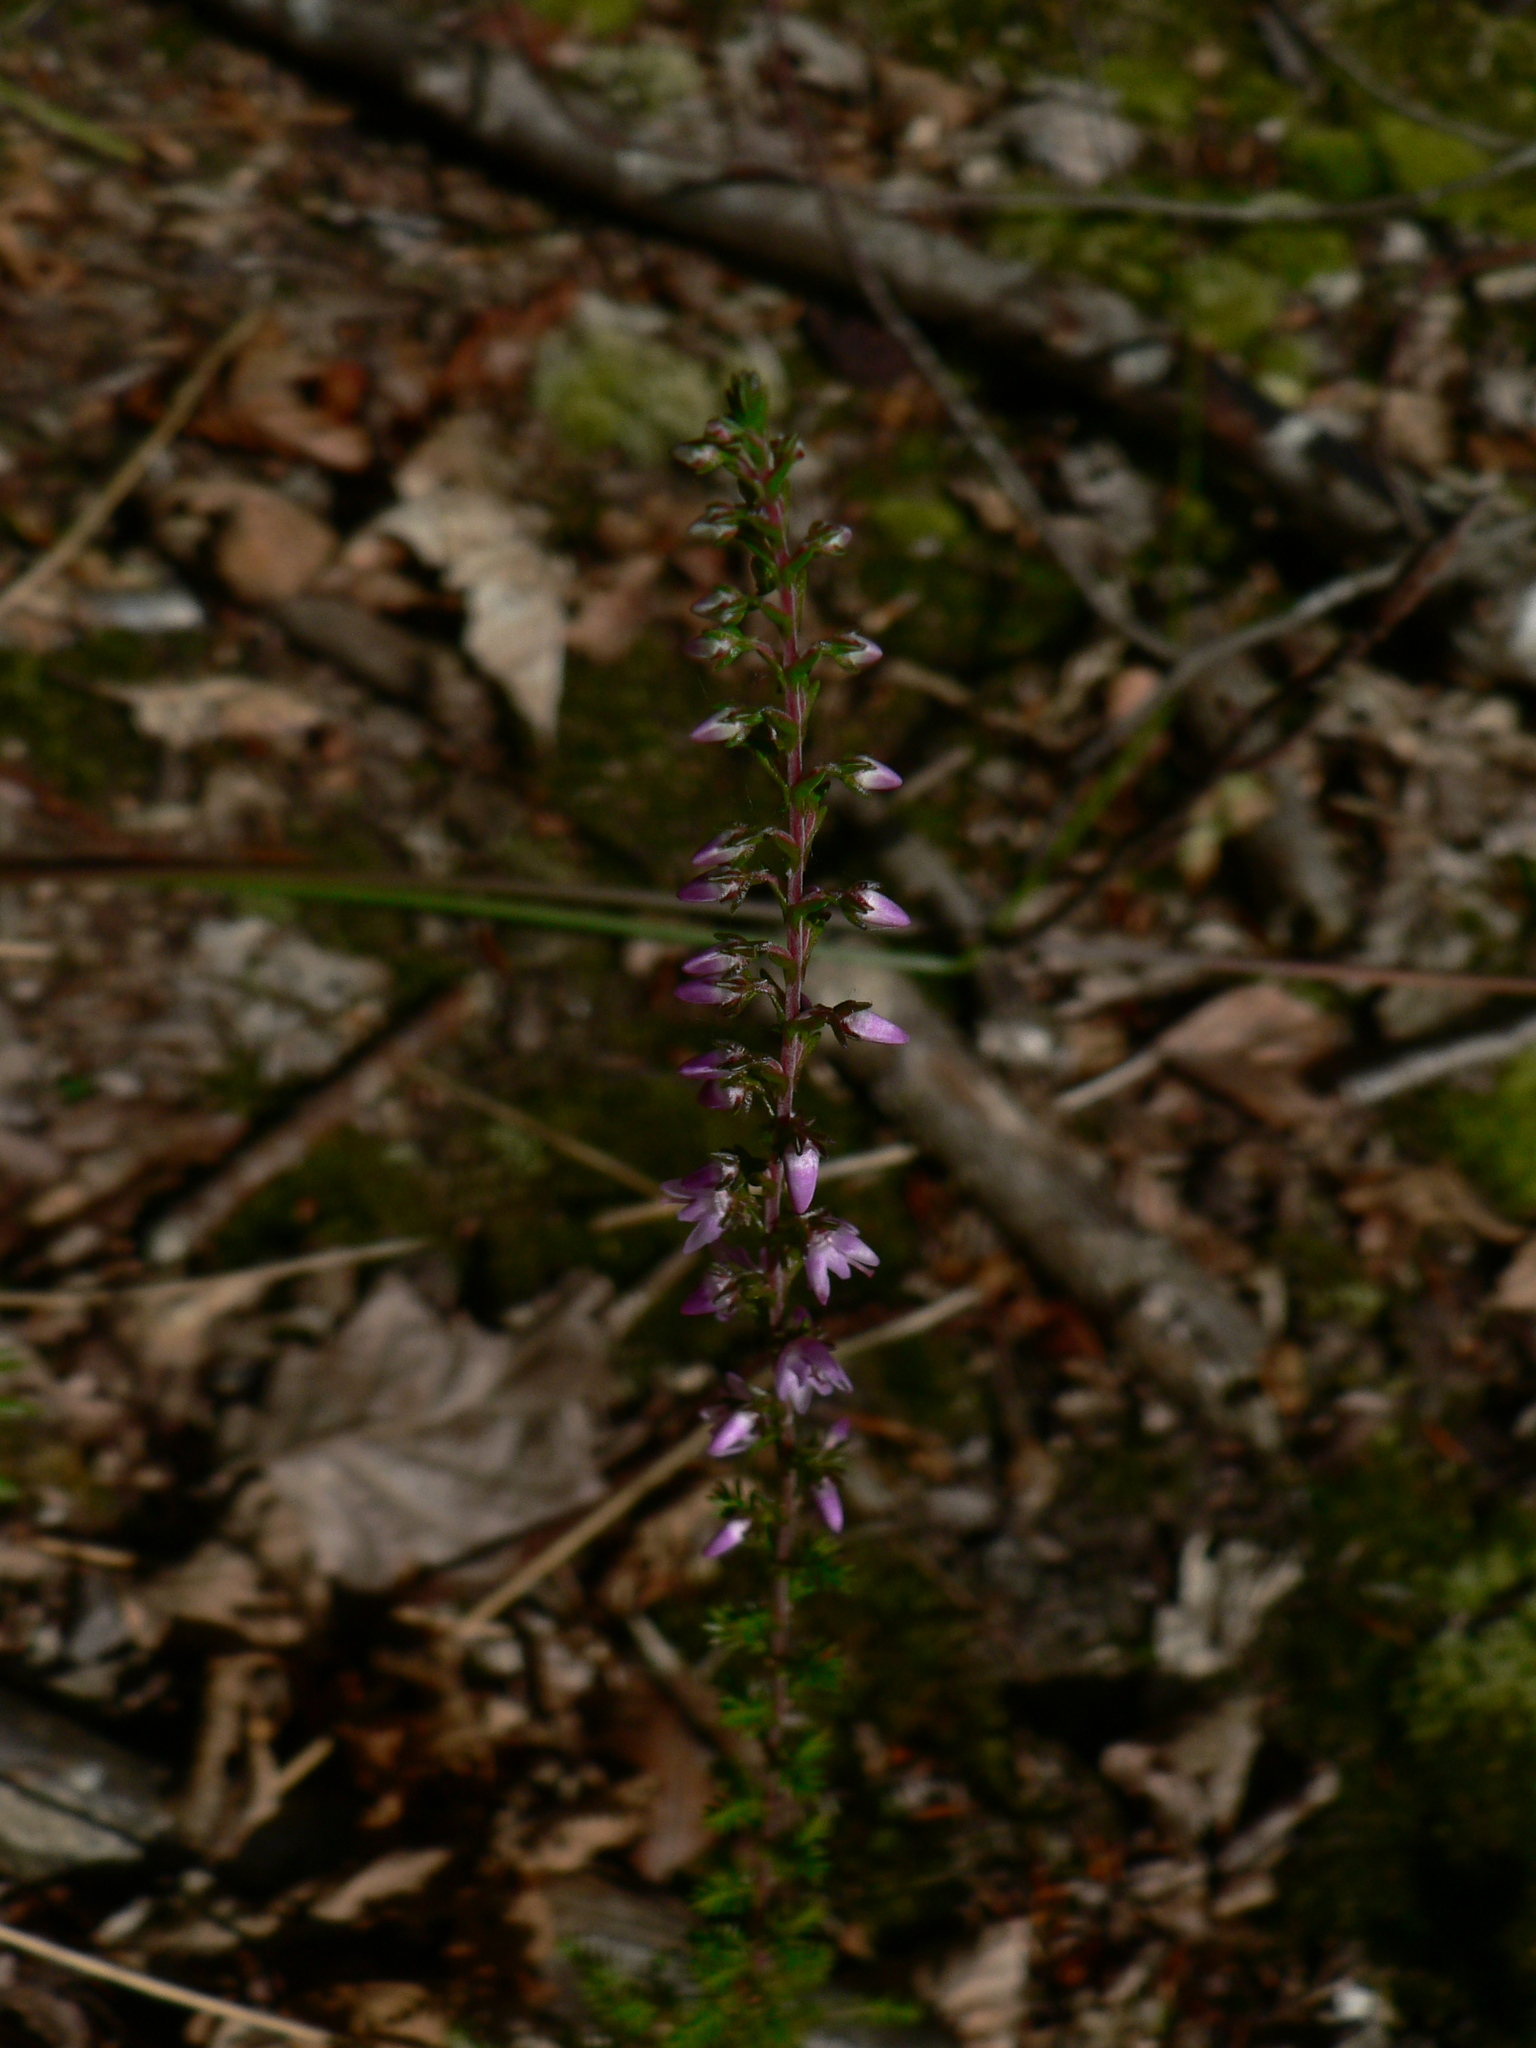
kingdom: Plantae
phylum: Tracheophyta
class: Magnoliopsida
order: Ericales
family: Ericaceae
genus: Calluna
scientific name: Calluna vulgaris
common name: Heather
